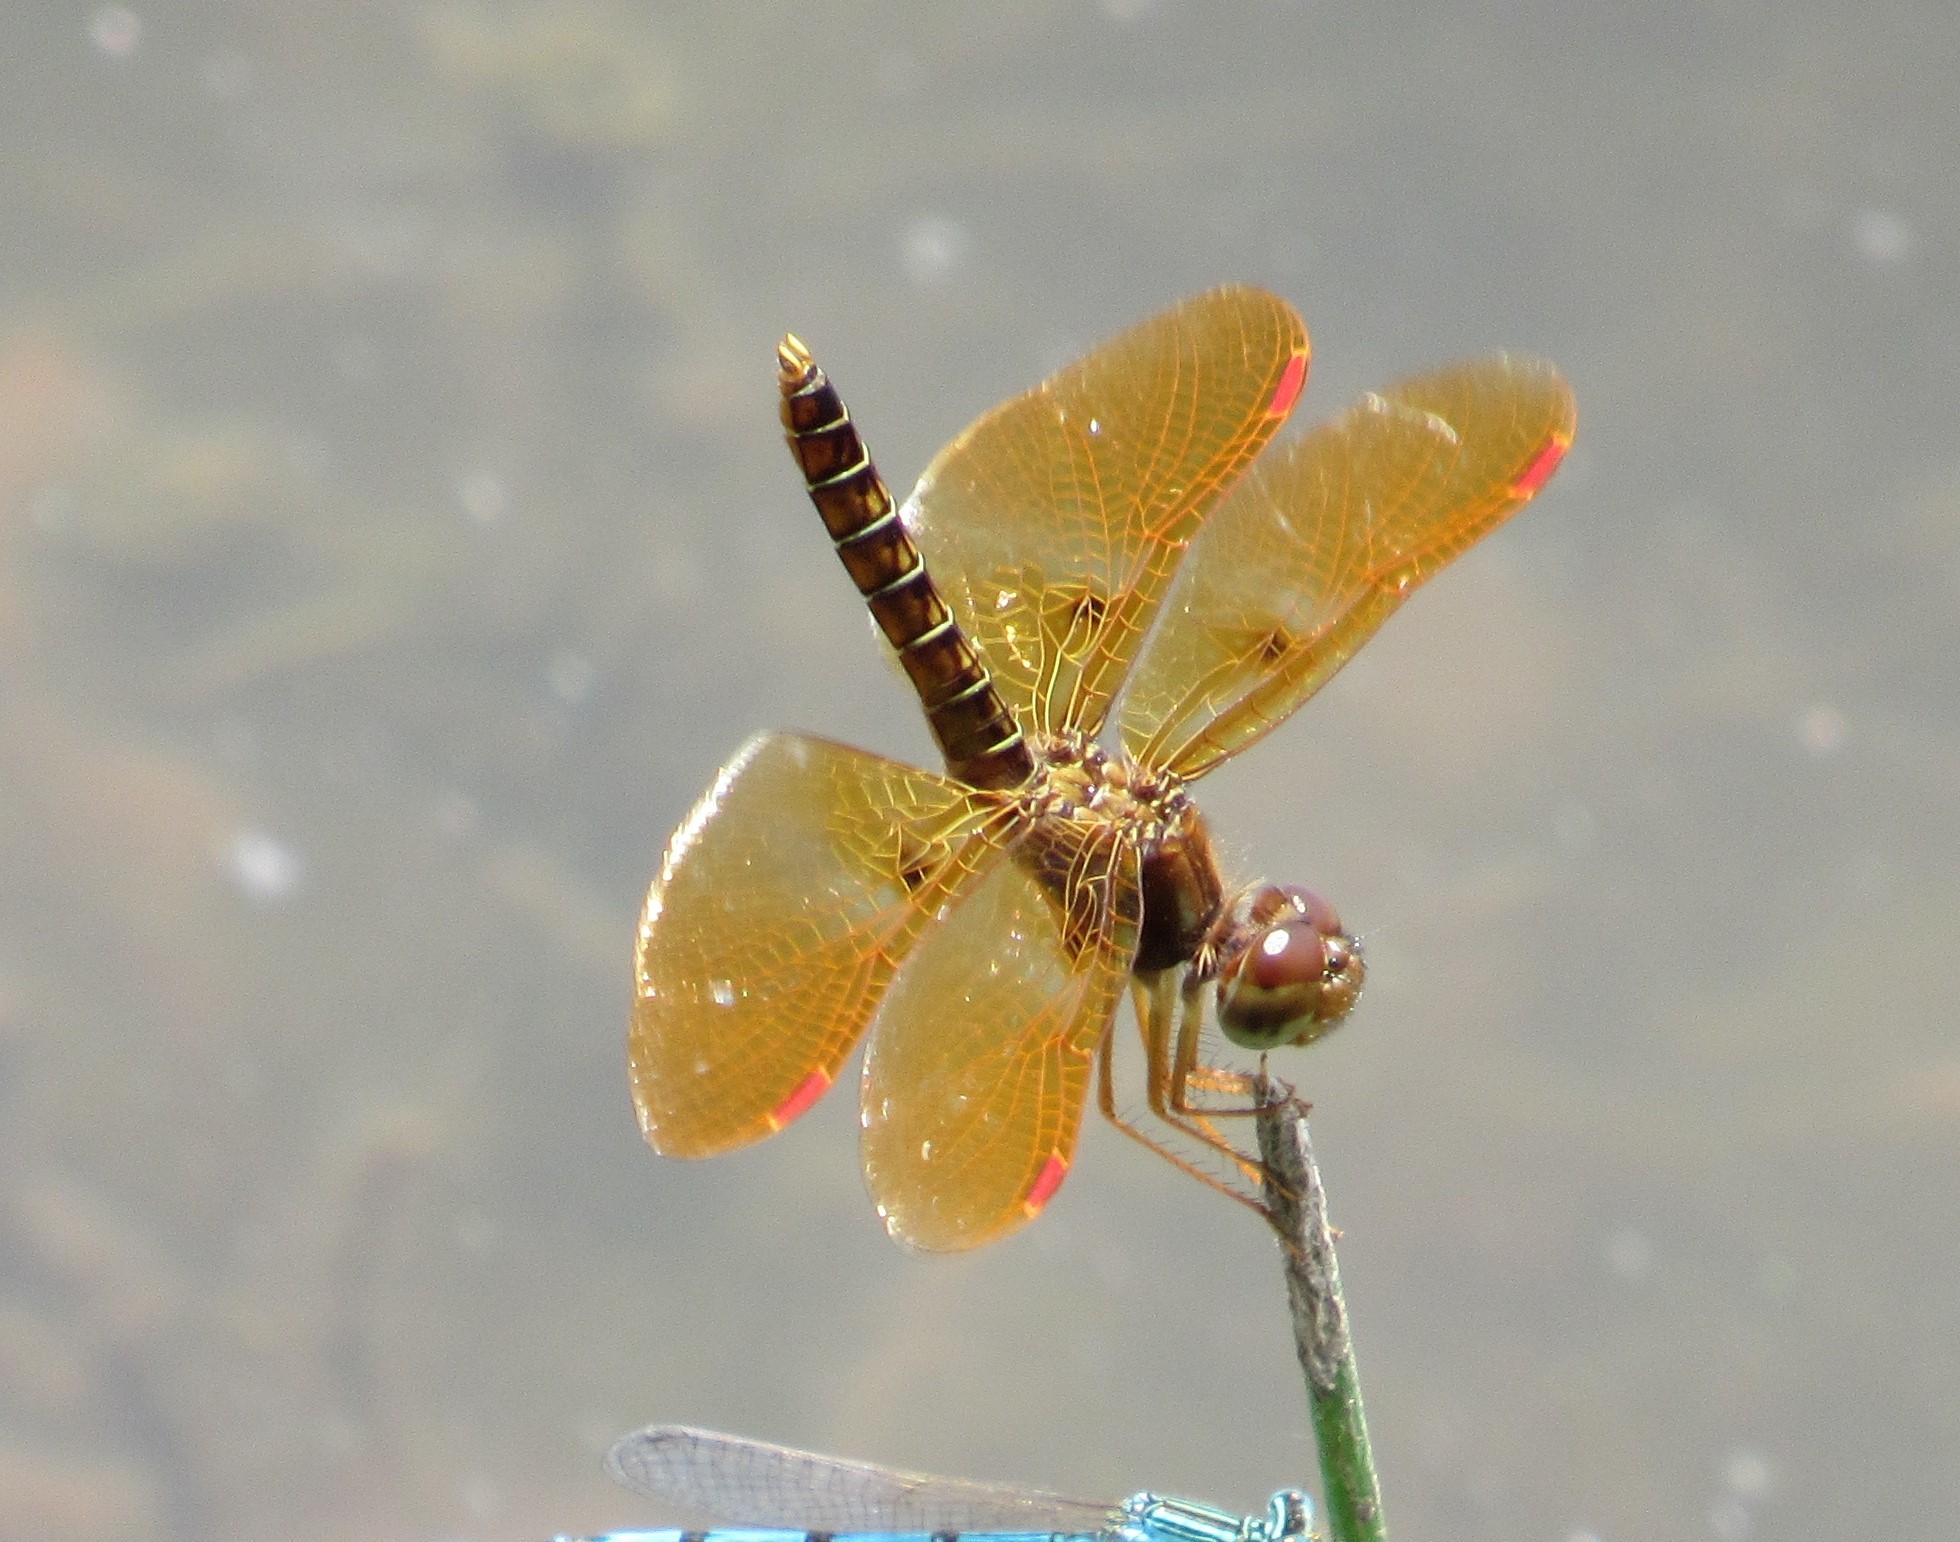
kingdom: Animalia
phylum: Arthropoda
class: Insecta
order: Odonata
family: Libellulidae
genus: Perithemis
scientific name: Perithemis tenera
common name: Eastern amberwing
